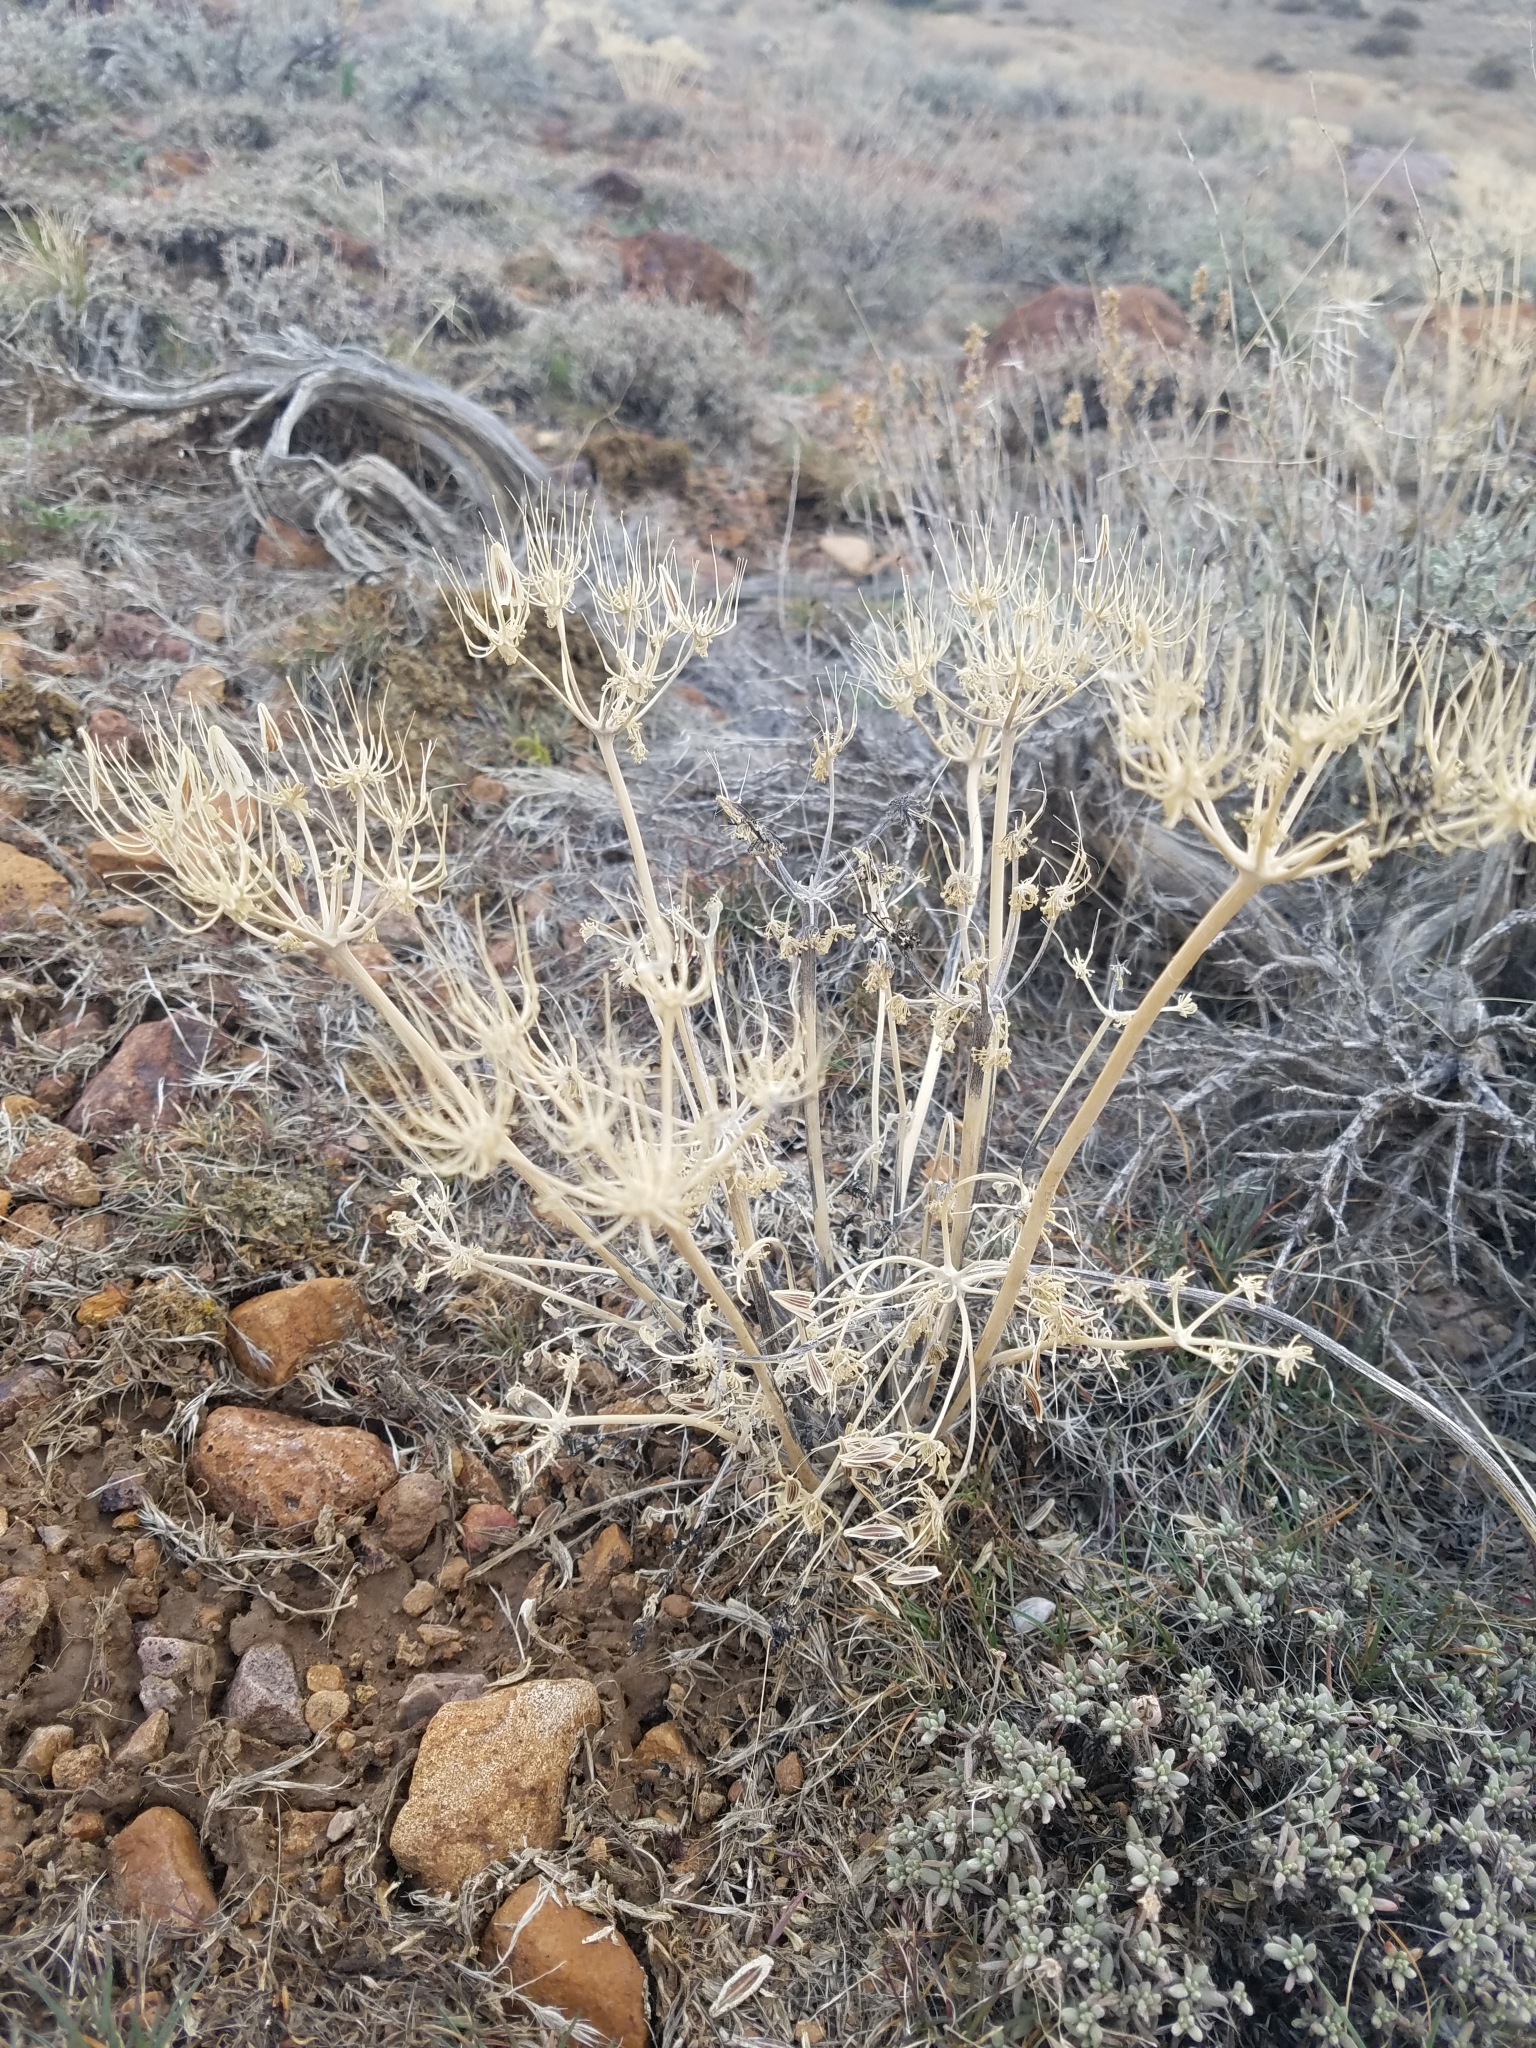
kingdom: Plantae
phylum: Tracheophyta
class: Magnoliopsida
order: Apiales
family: Apiaceae
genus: Lomatium
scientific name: Lomatium macrocarpum
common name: Big-seed biscuitroot
